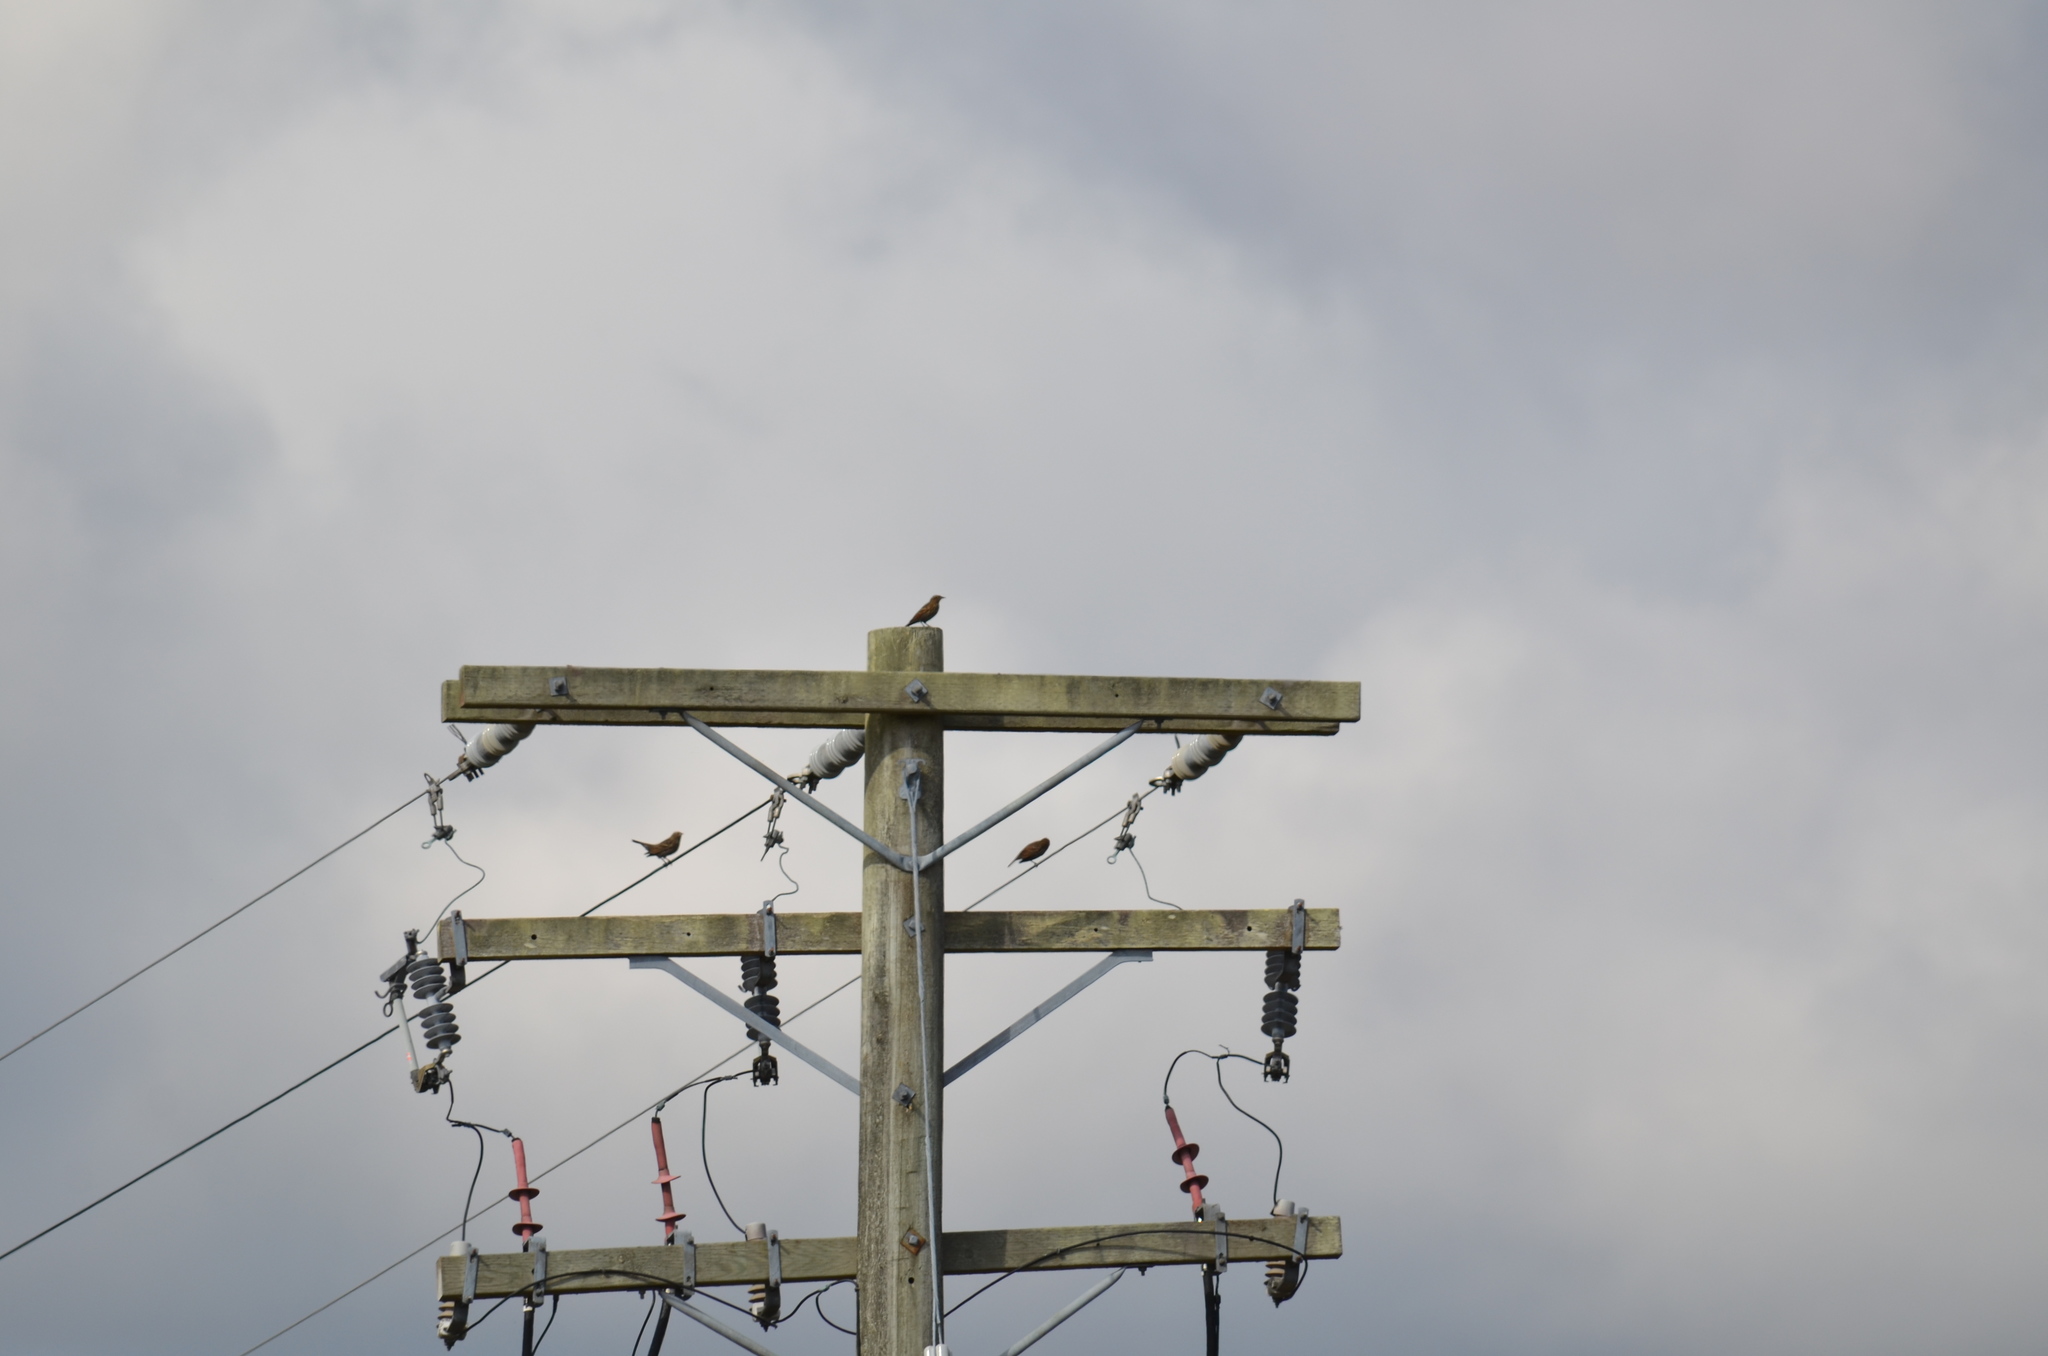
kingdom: Animalia
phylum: Chordata
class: Aves
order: Passeriformes
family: Icteridae
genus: Agelaius
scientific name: Agelaius phoeniceus
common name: Red-winged blackbird
